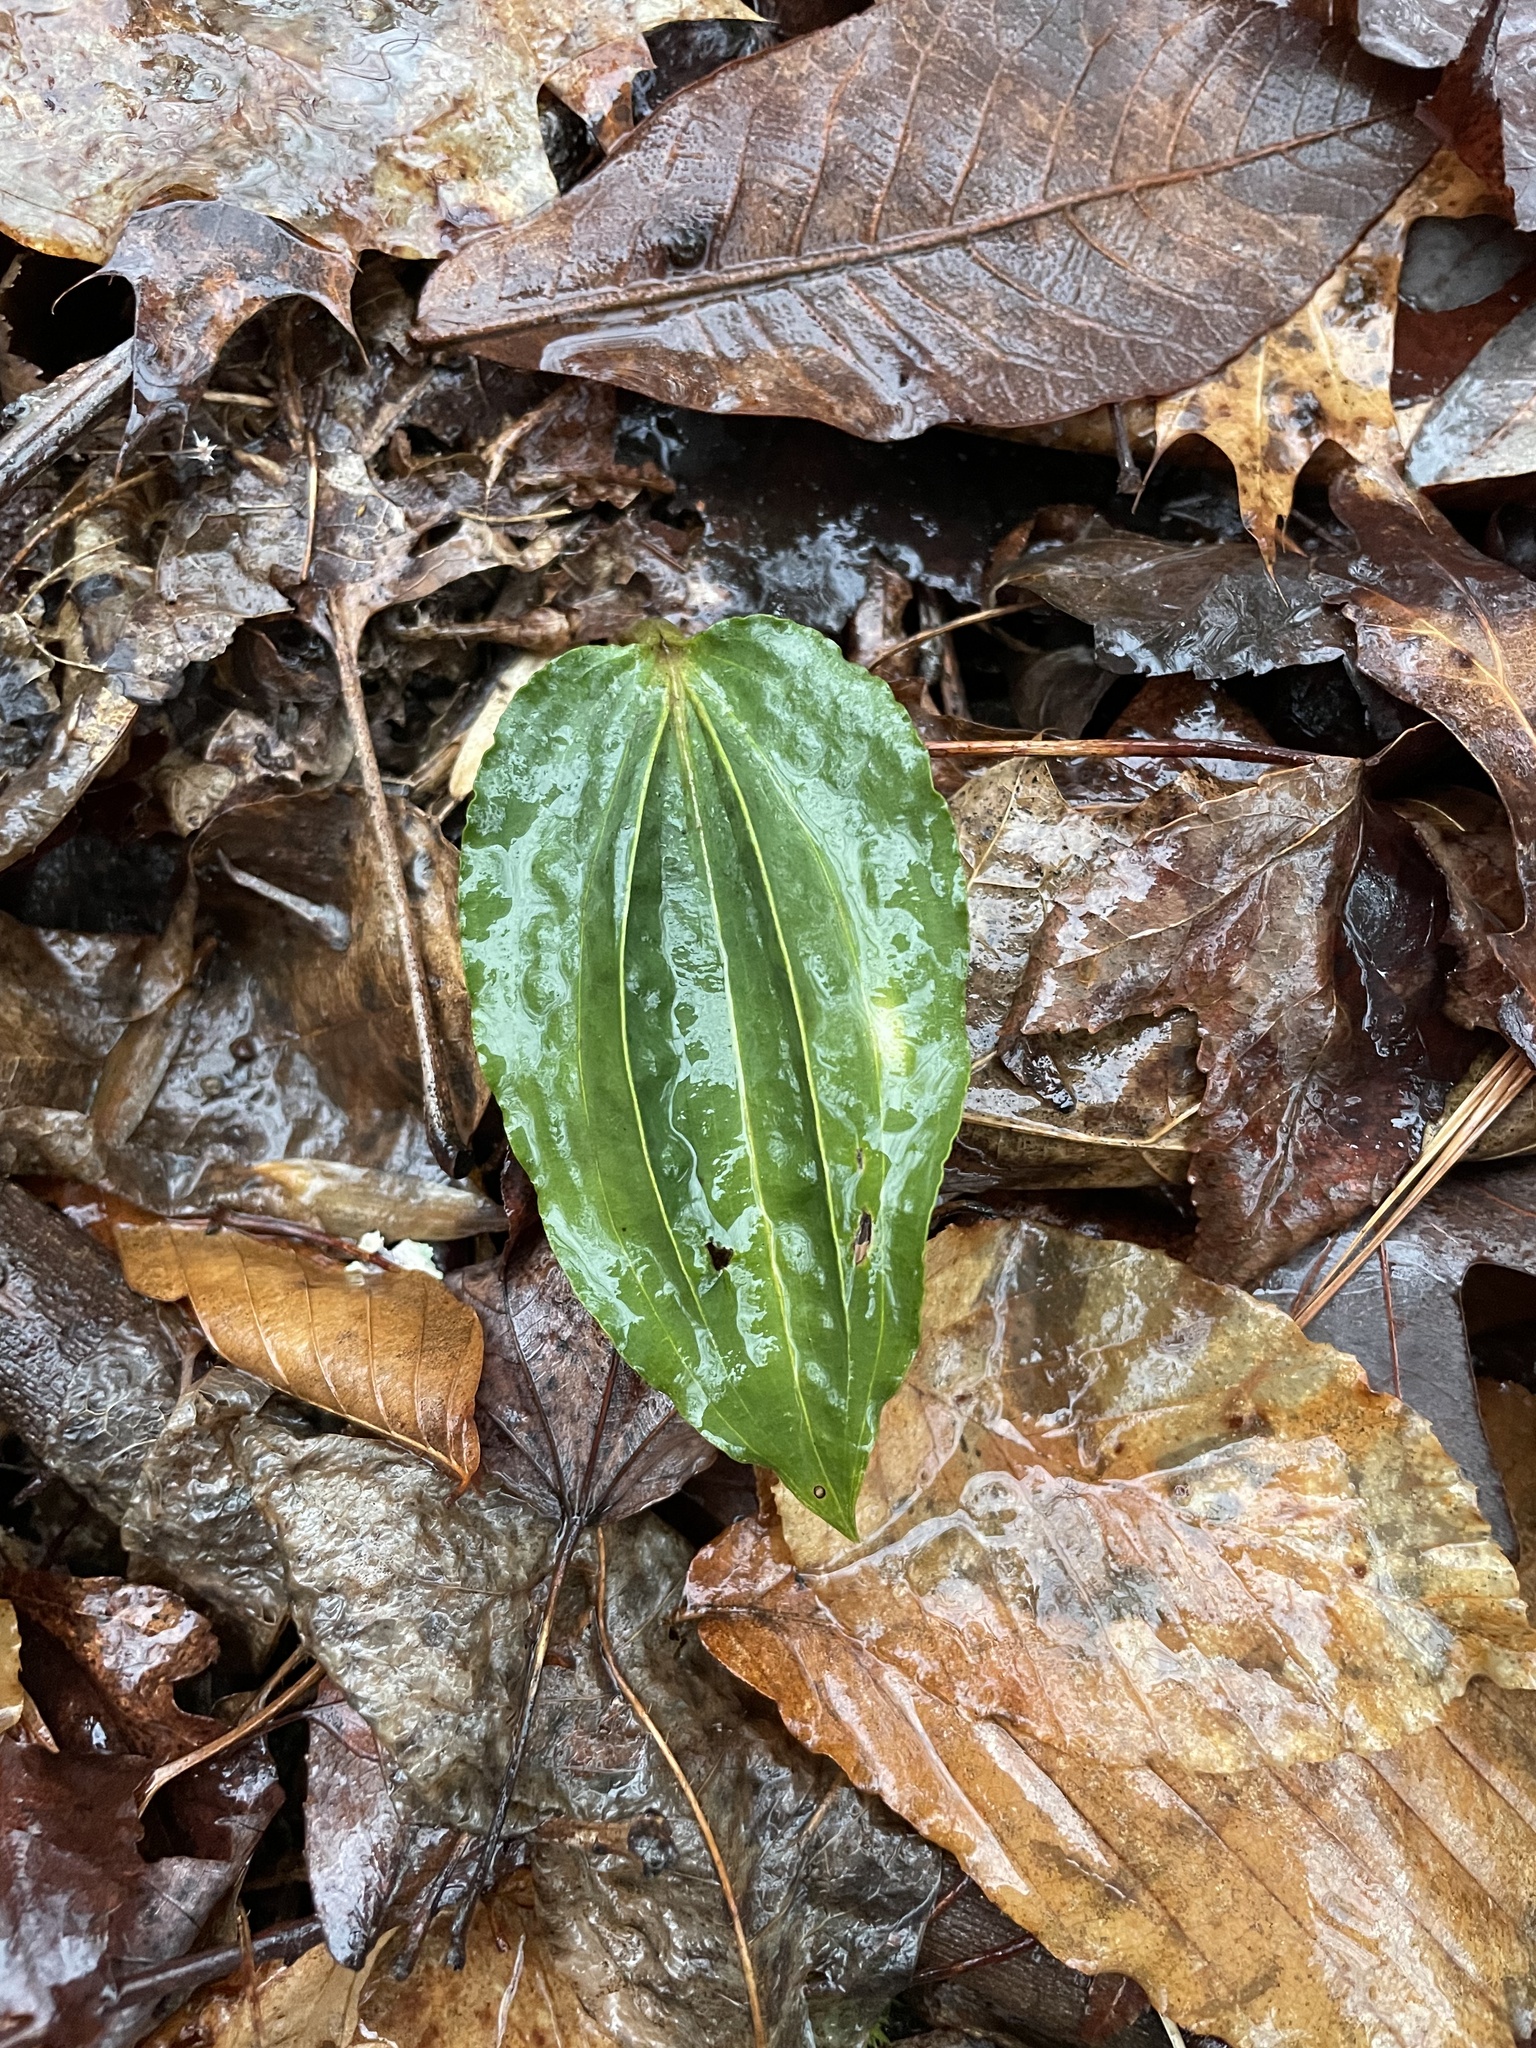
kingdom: Plantae
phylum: Tracheophyta
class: Liliopsida
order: Asparagales
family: Orchidaceae
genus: Tipularia
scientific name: Tipularia discolor
